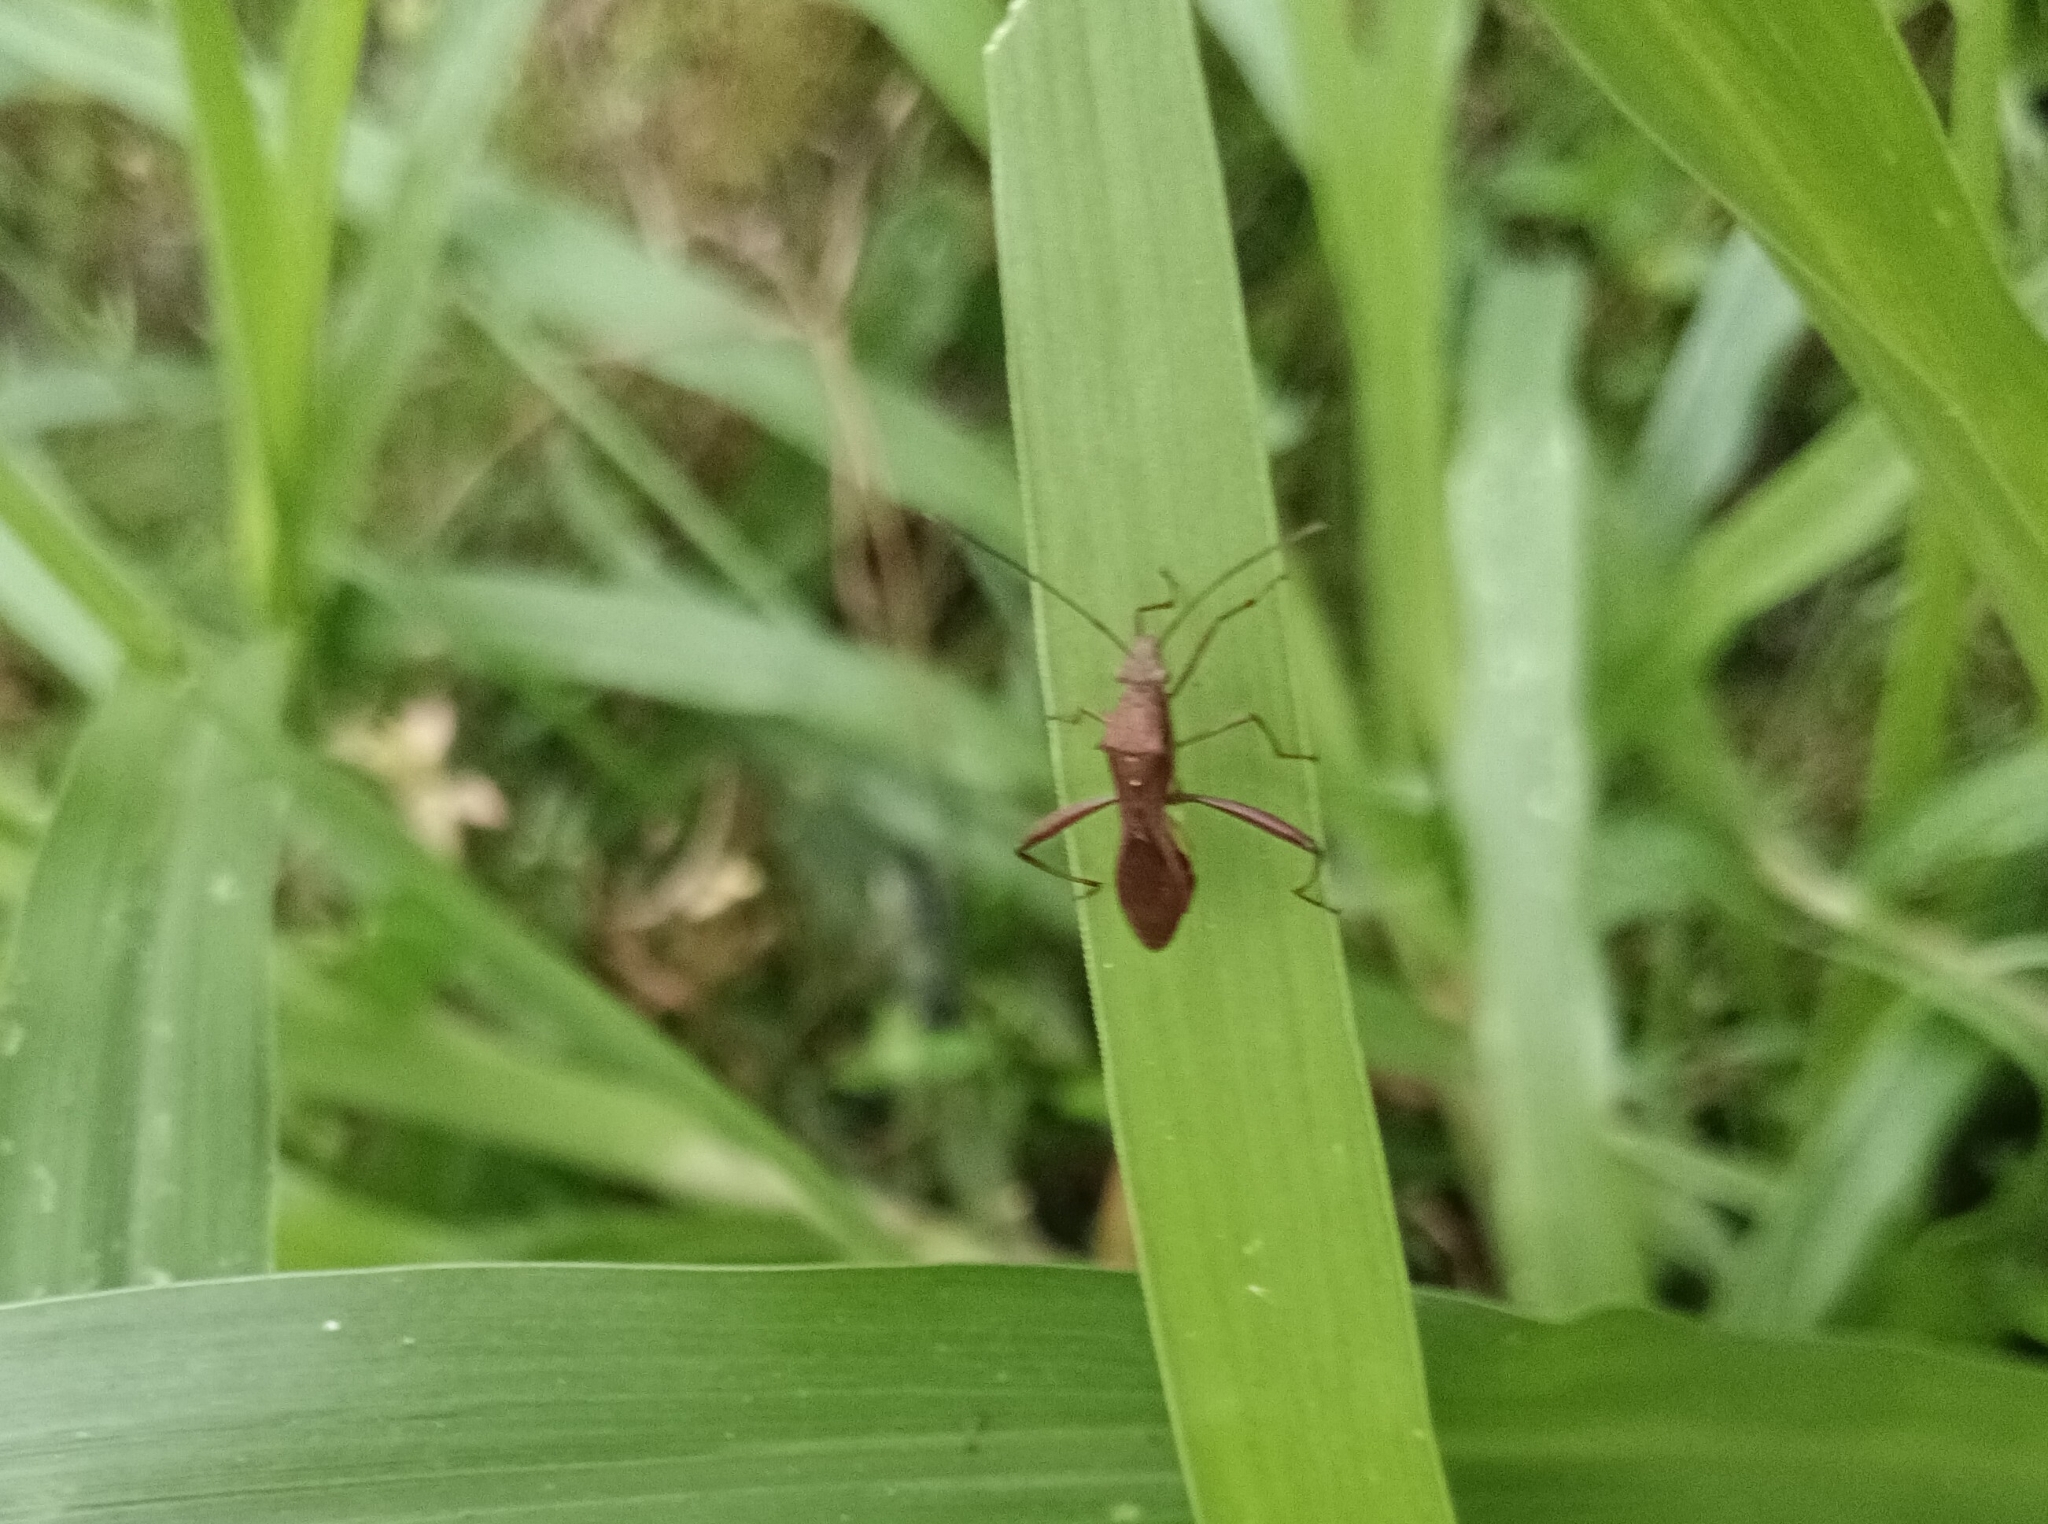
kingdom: Animalia
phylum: Arthropoda
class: Insecta
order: Hemiptera
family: Alydidae
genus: Riptortus
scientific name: Riptortus linearis
